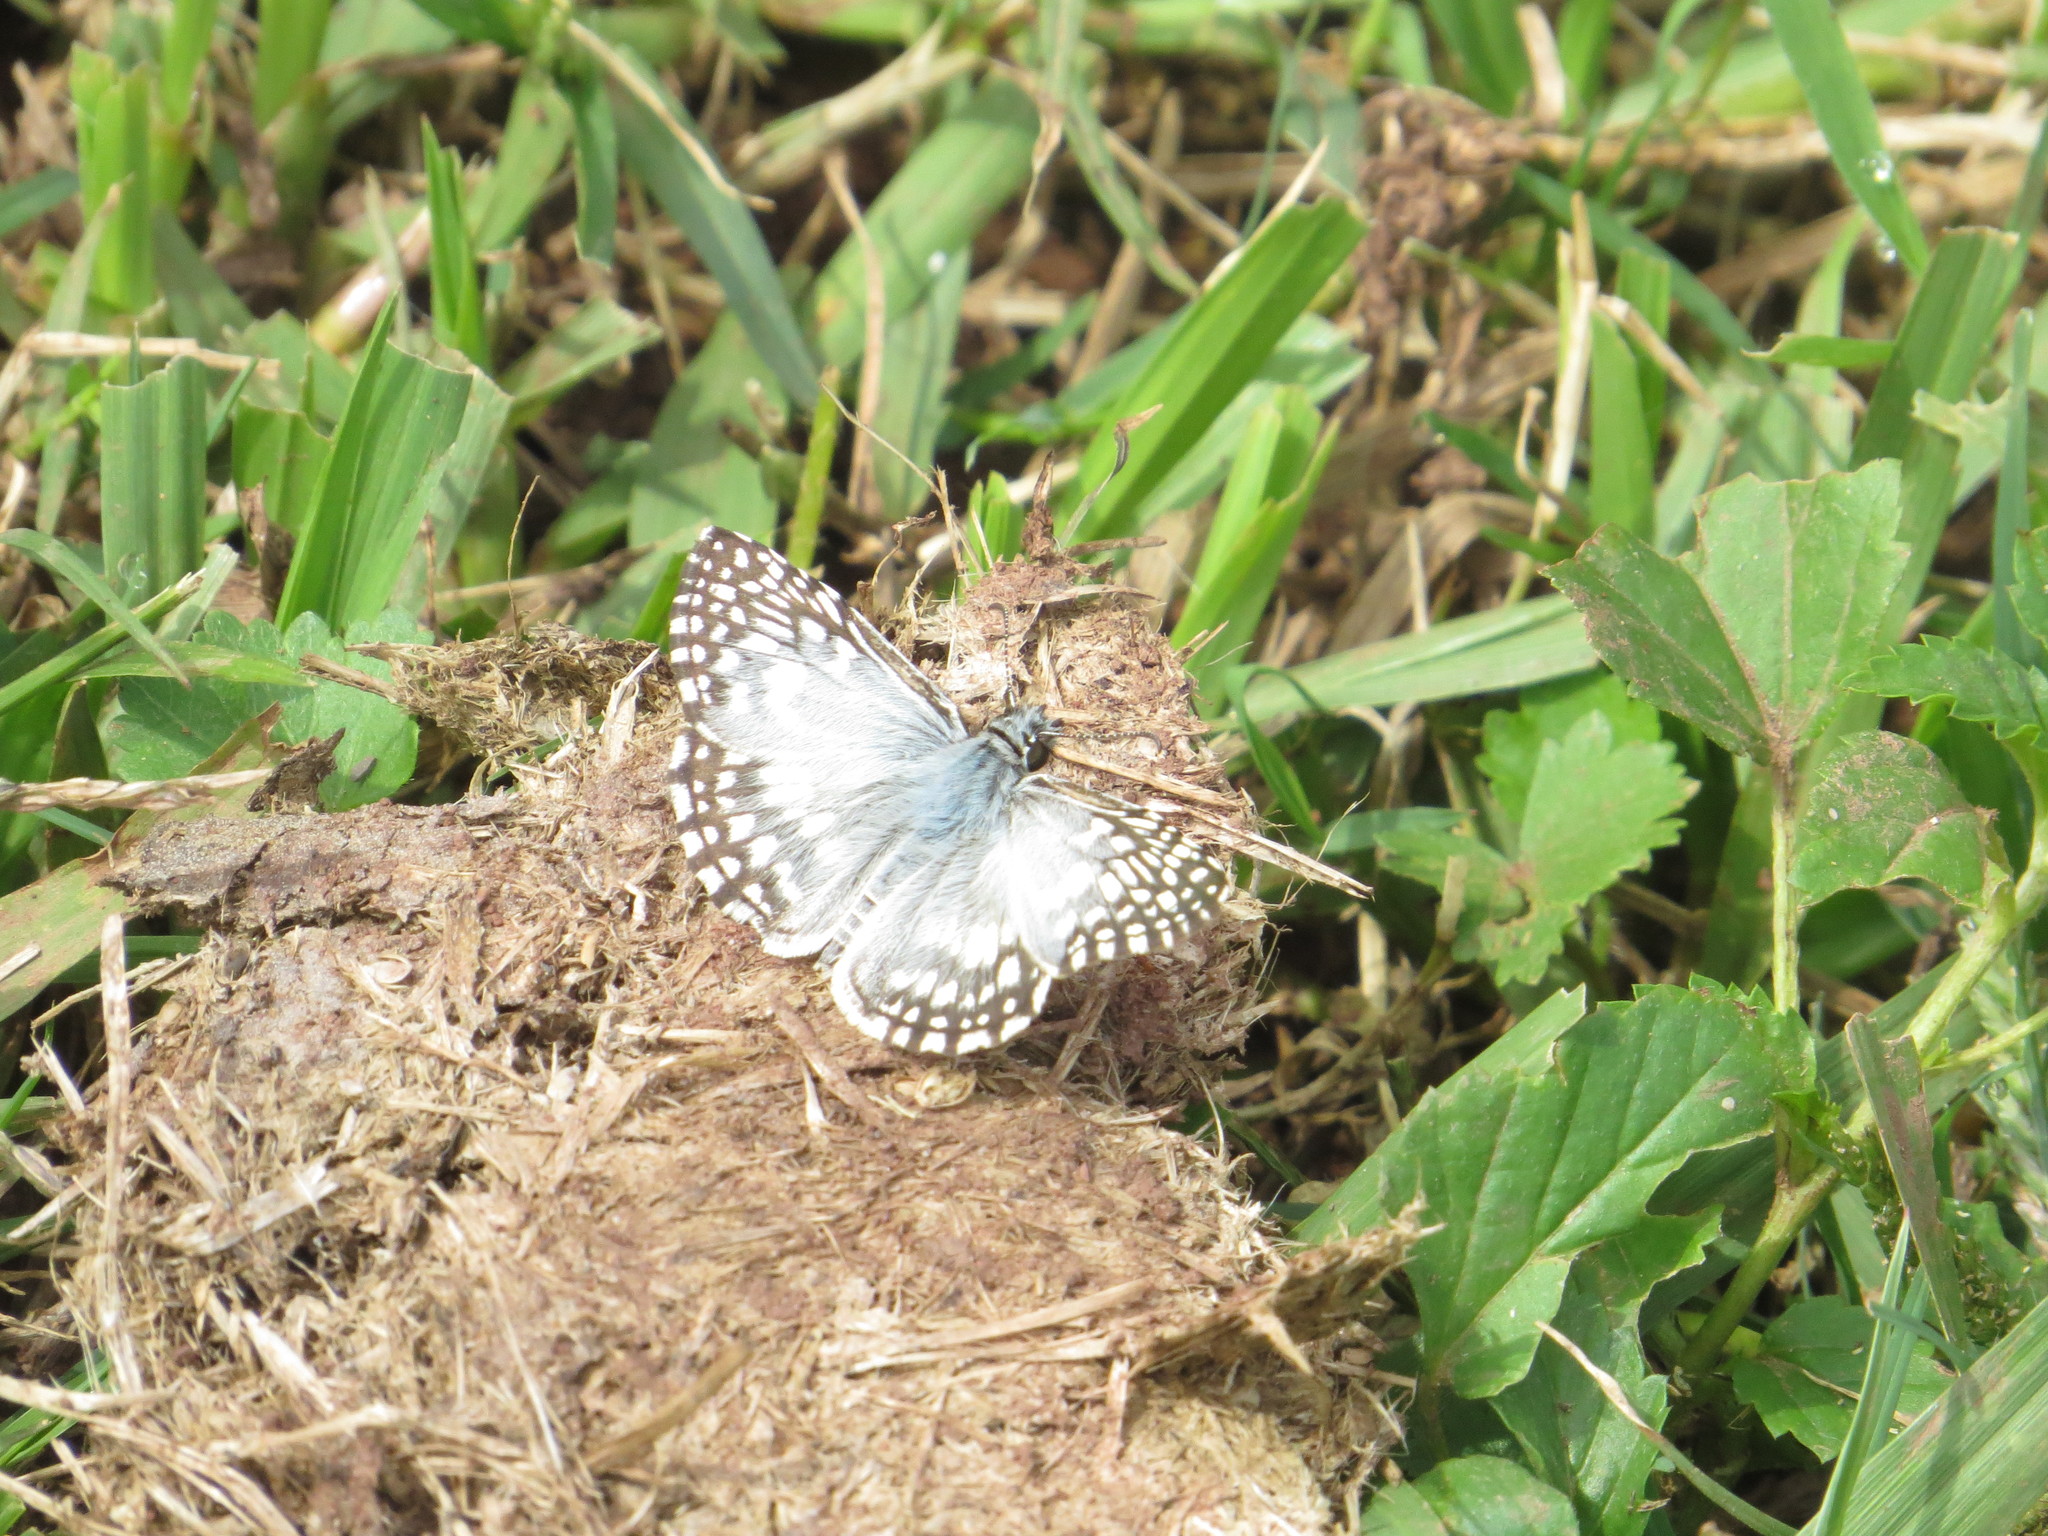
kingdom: Animalia
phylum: Arthropoda
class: Insecta
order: Lepidoptera
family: Hesperiidae
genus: Pyrgus
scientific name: Pyrgus oileus
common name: Tropical checkered-skipper
